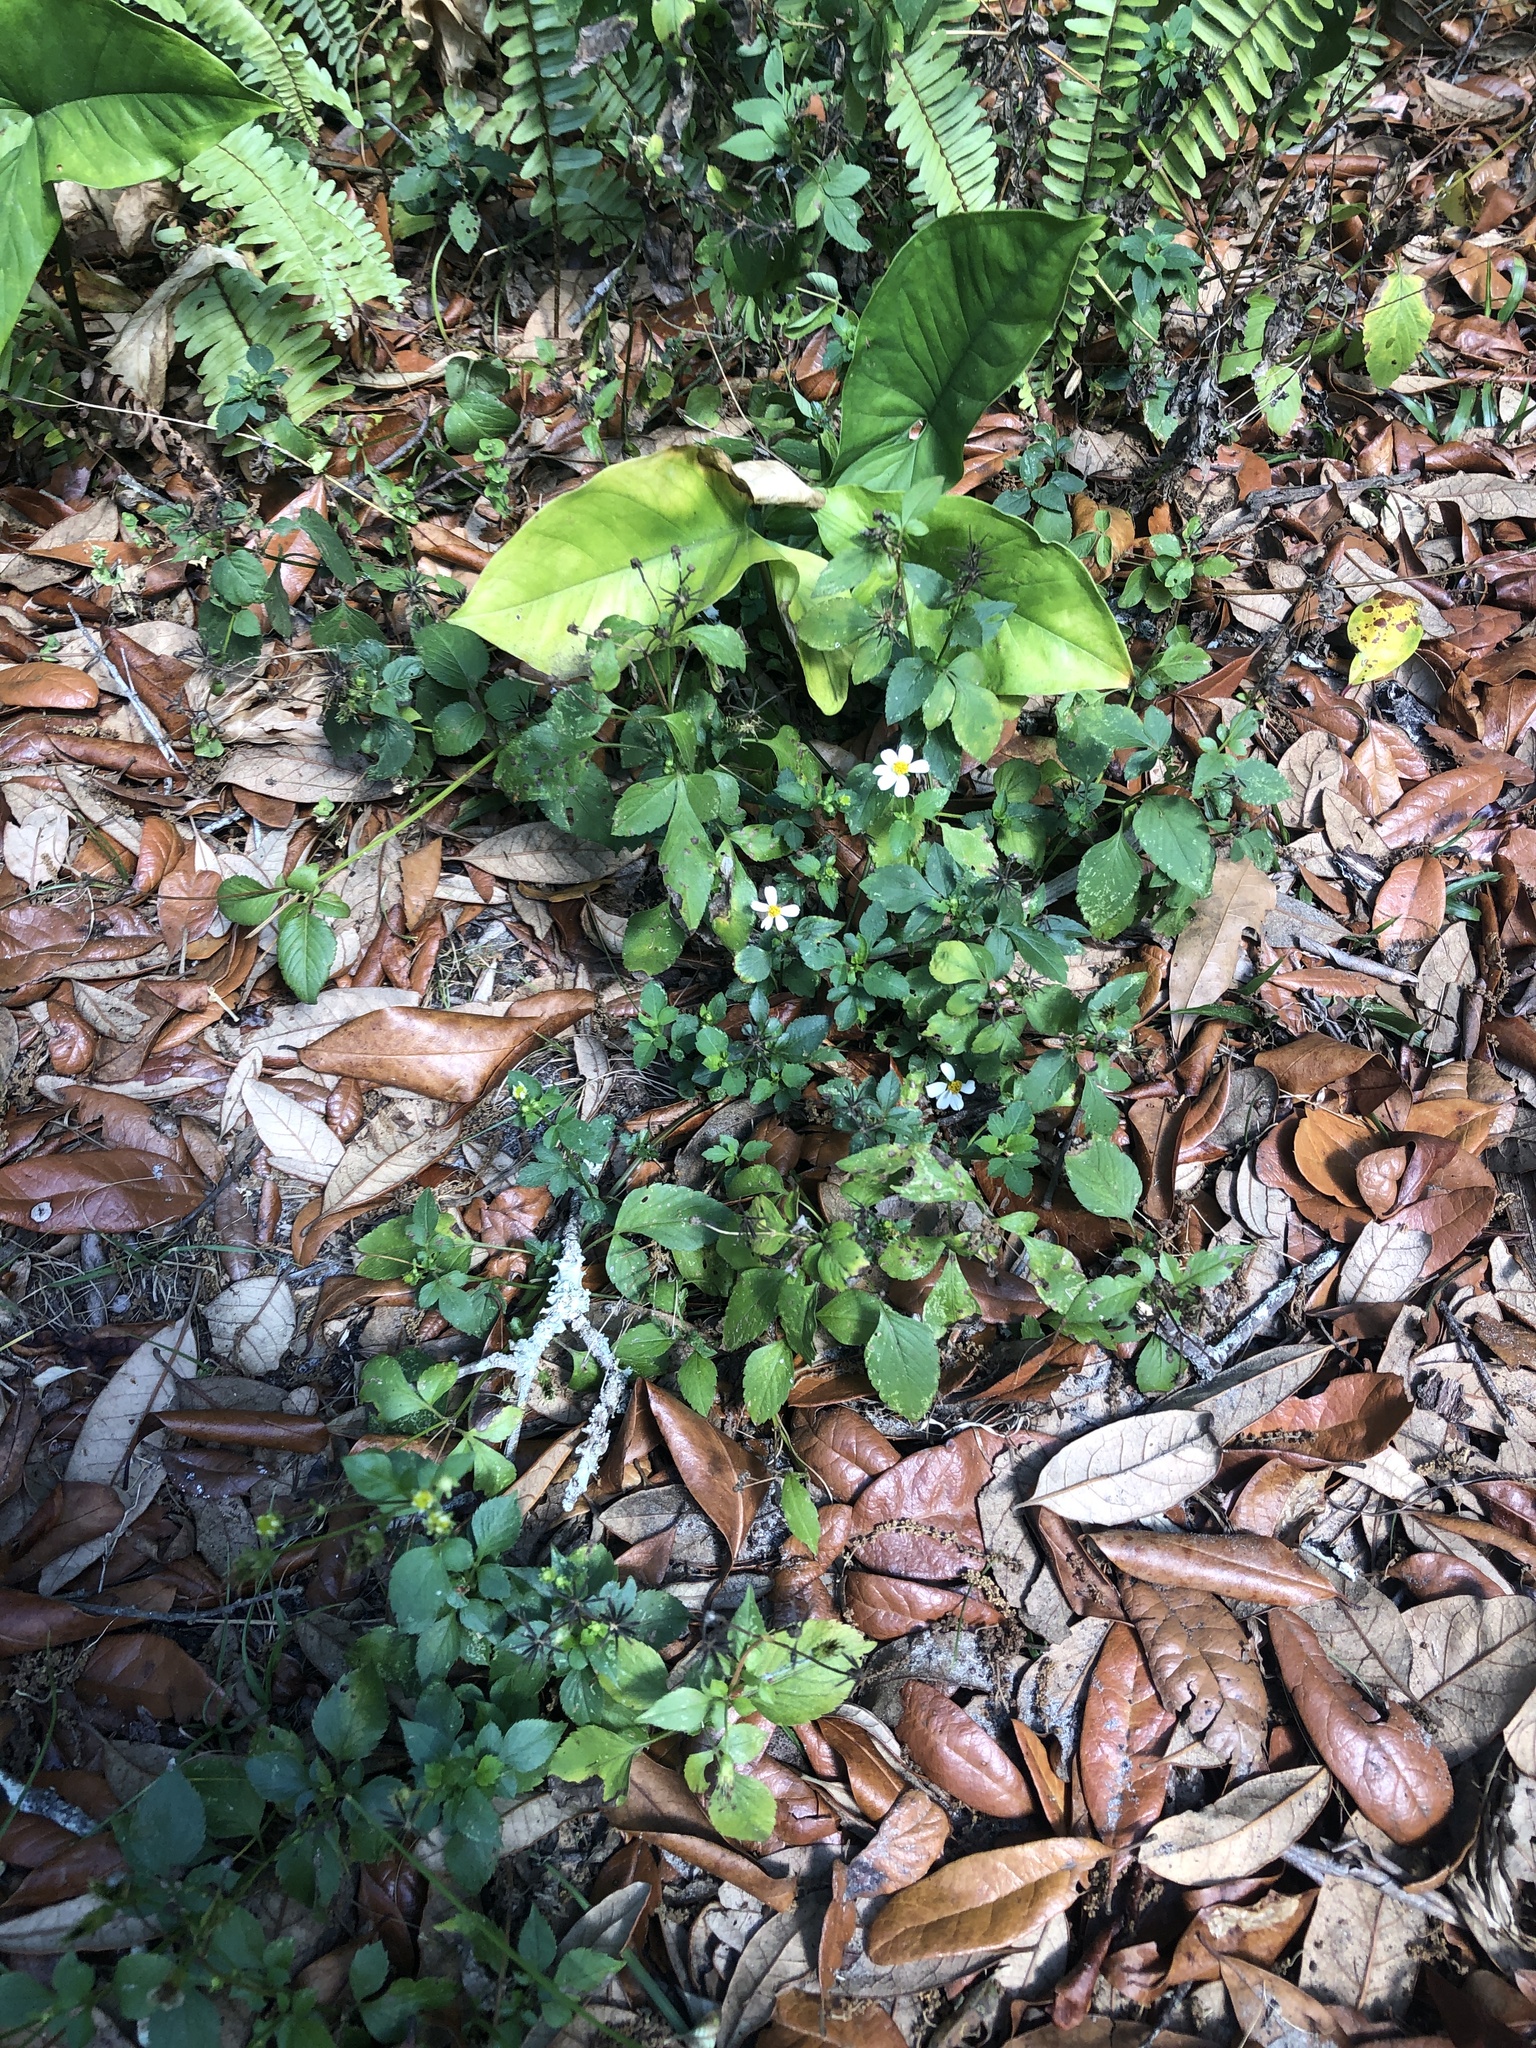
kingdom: Plantae
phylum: Tracheophyta
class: Magnoliopsida
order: Asterales
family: Asteraceae
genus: Bidens
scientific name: Bidens alba
